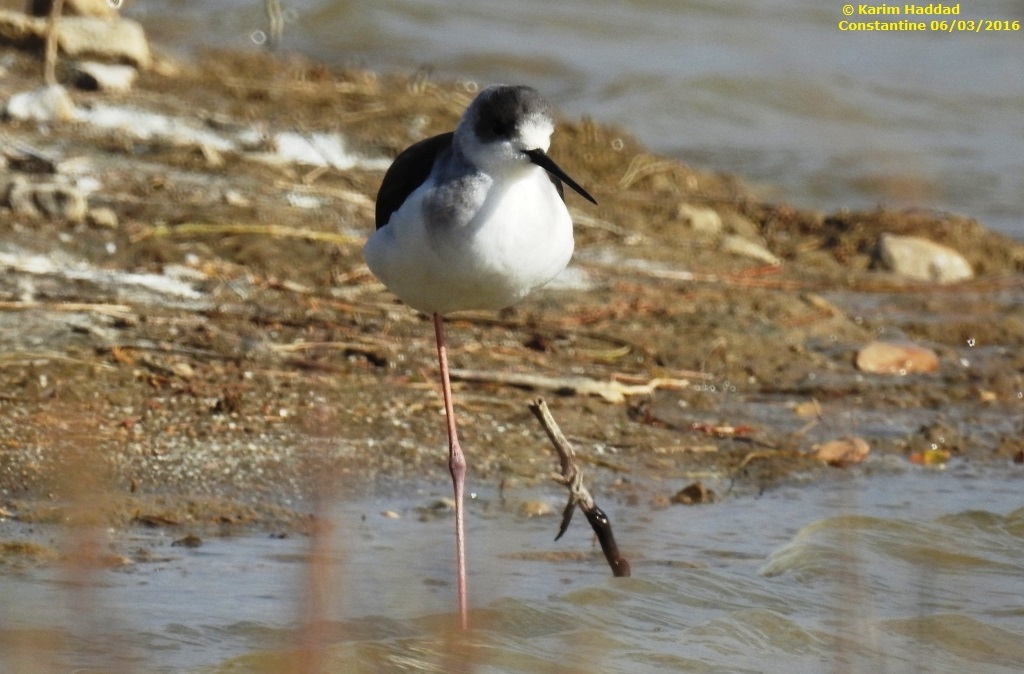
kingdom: Animalia
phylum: Chordata
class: Aves
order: Charadriiformes
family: Recurvirostridae
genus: Himantopus
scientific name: Himantopus himantopus
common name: Black-winged stilt
